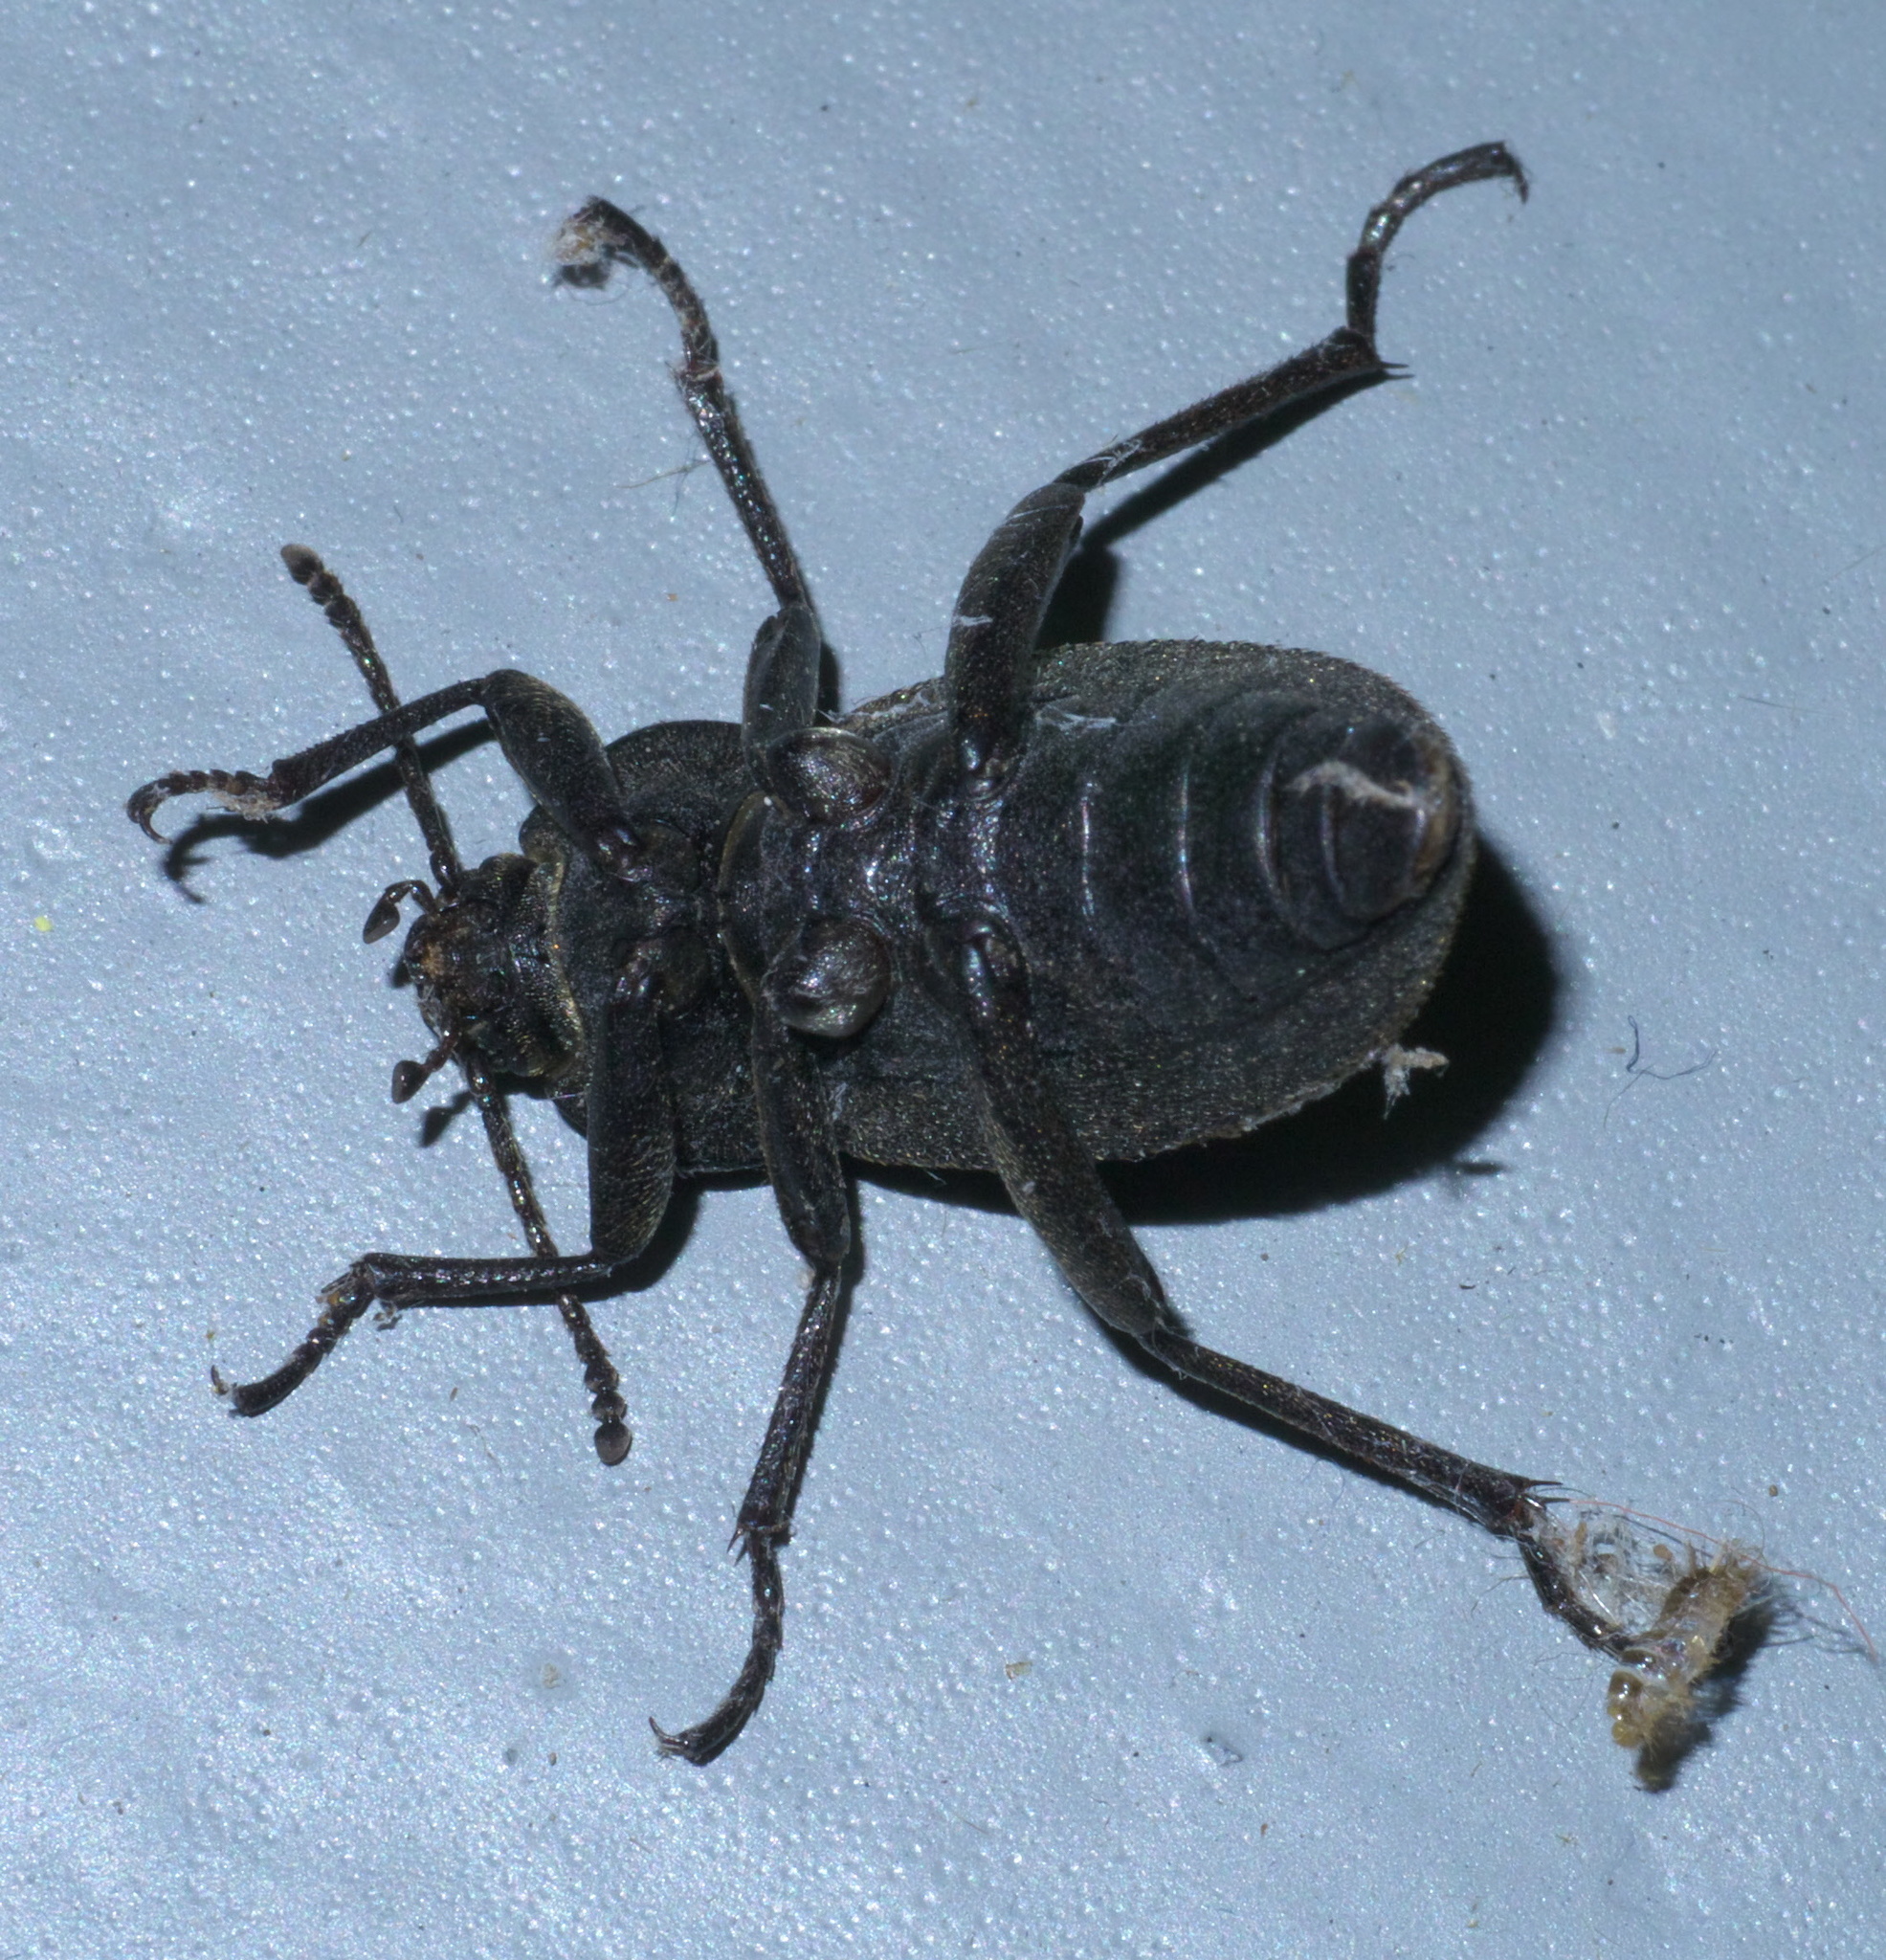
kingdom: Animalia
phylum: Arthropoda
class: Insecta
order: Coleoptera
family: Tenebrionidae
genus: Eleodes
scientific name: Eleodes tricostata
